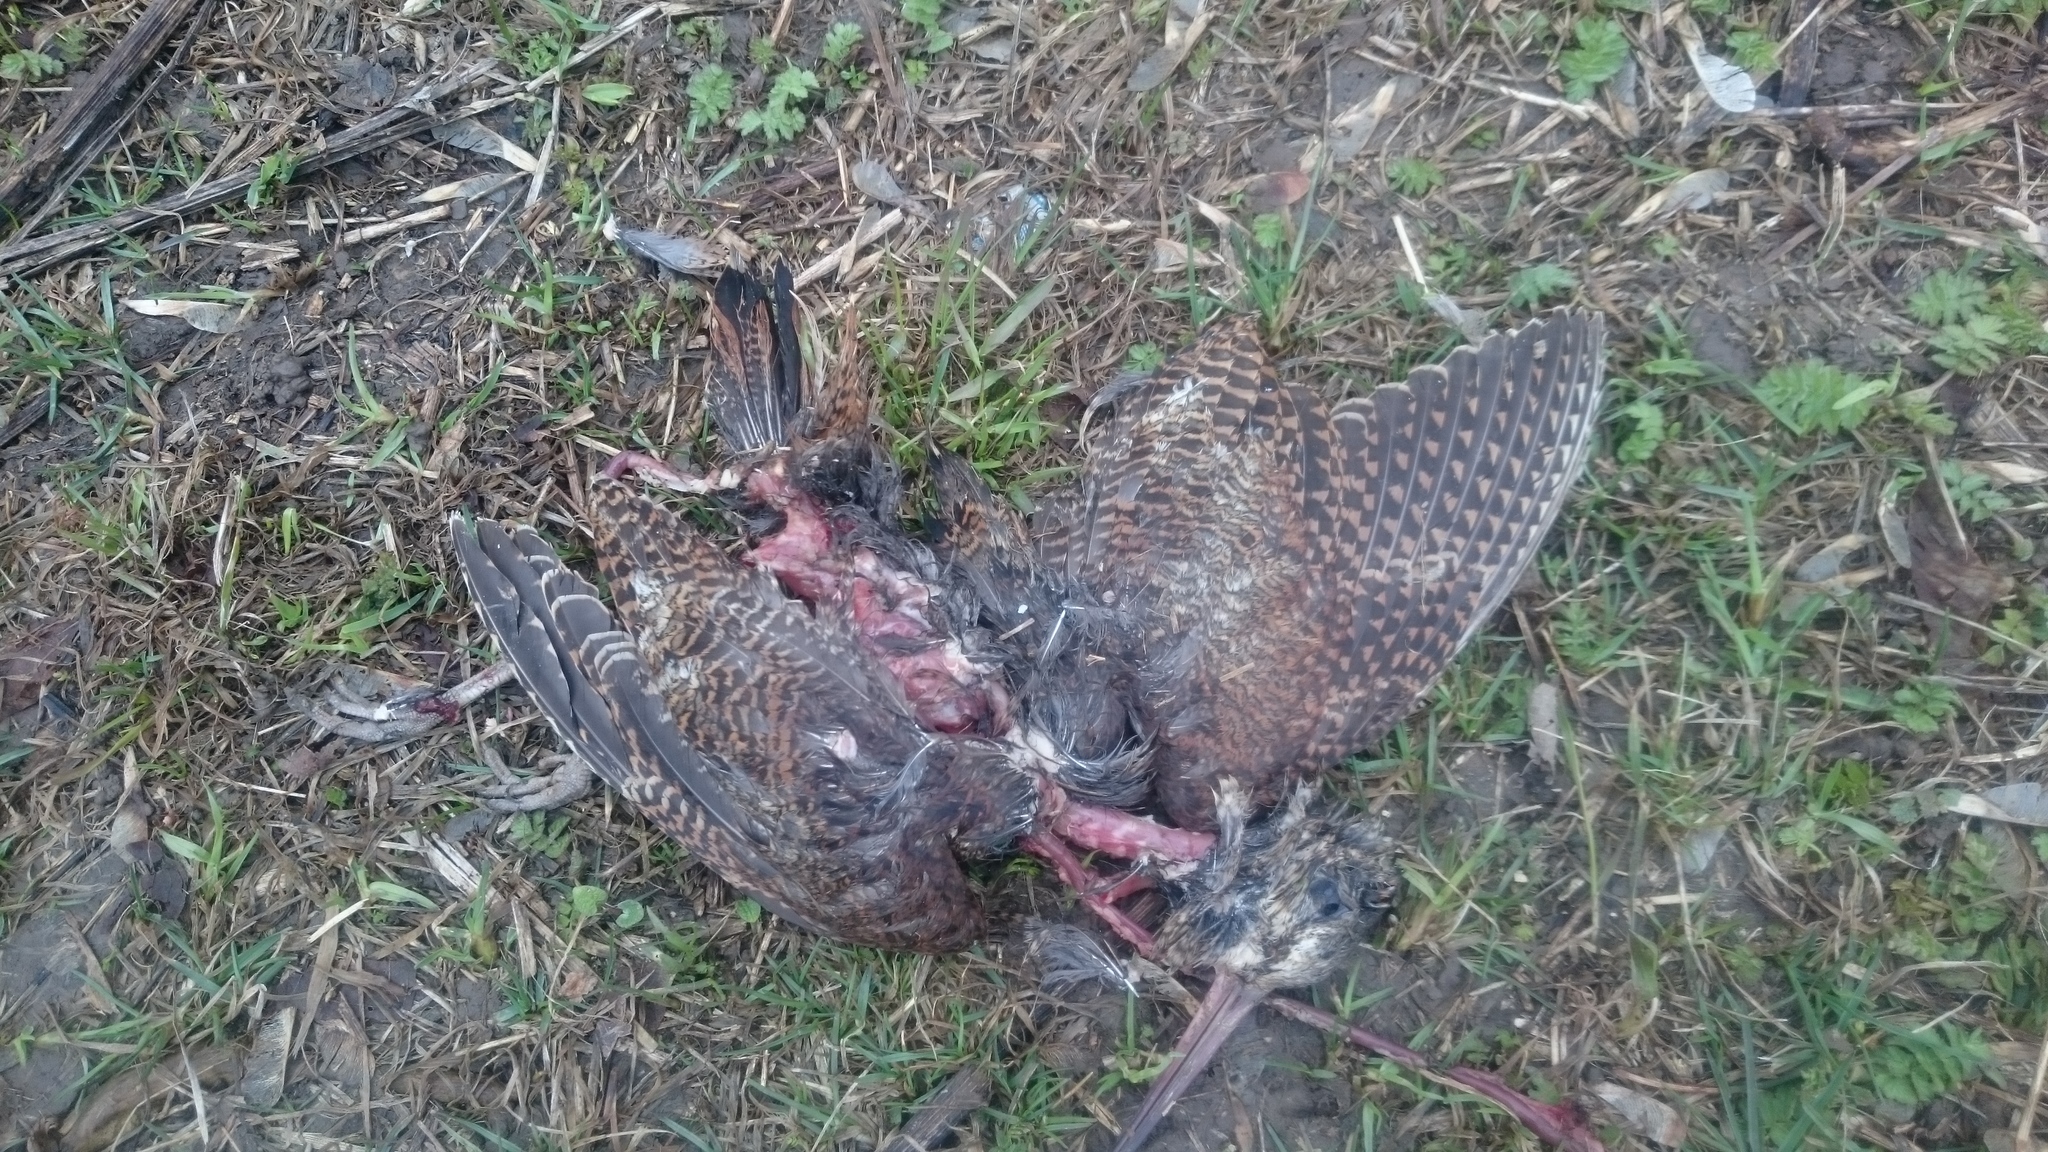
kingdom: Animalia
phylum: Chordata
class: Aves
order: Charadriiformes
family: Scolopacidae
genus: Scolopax
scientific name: Scolopax rusticola
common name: Eurasian woodcock
